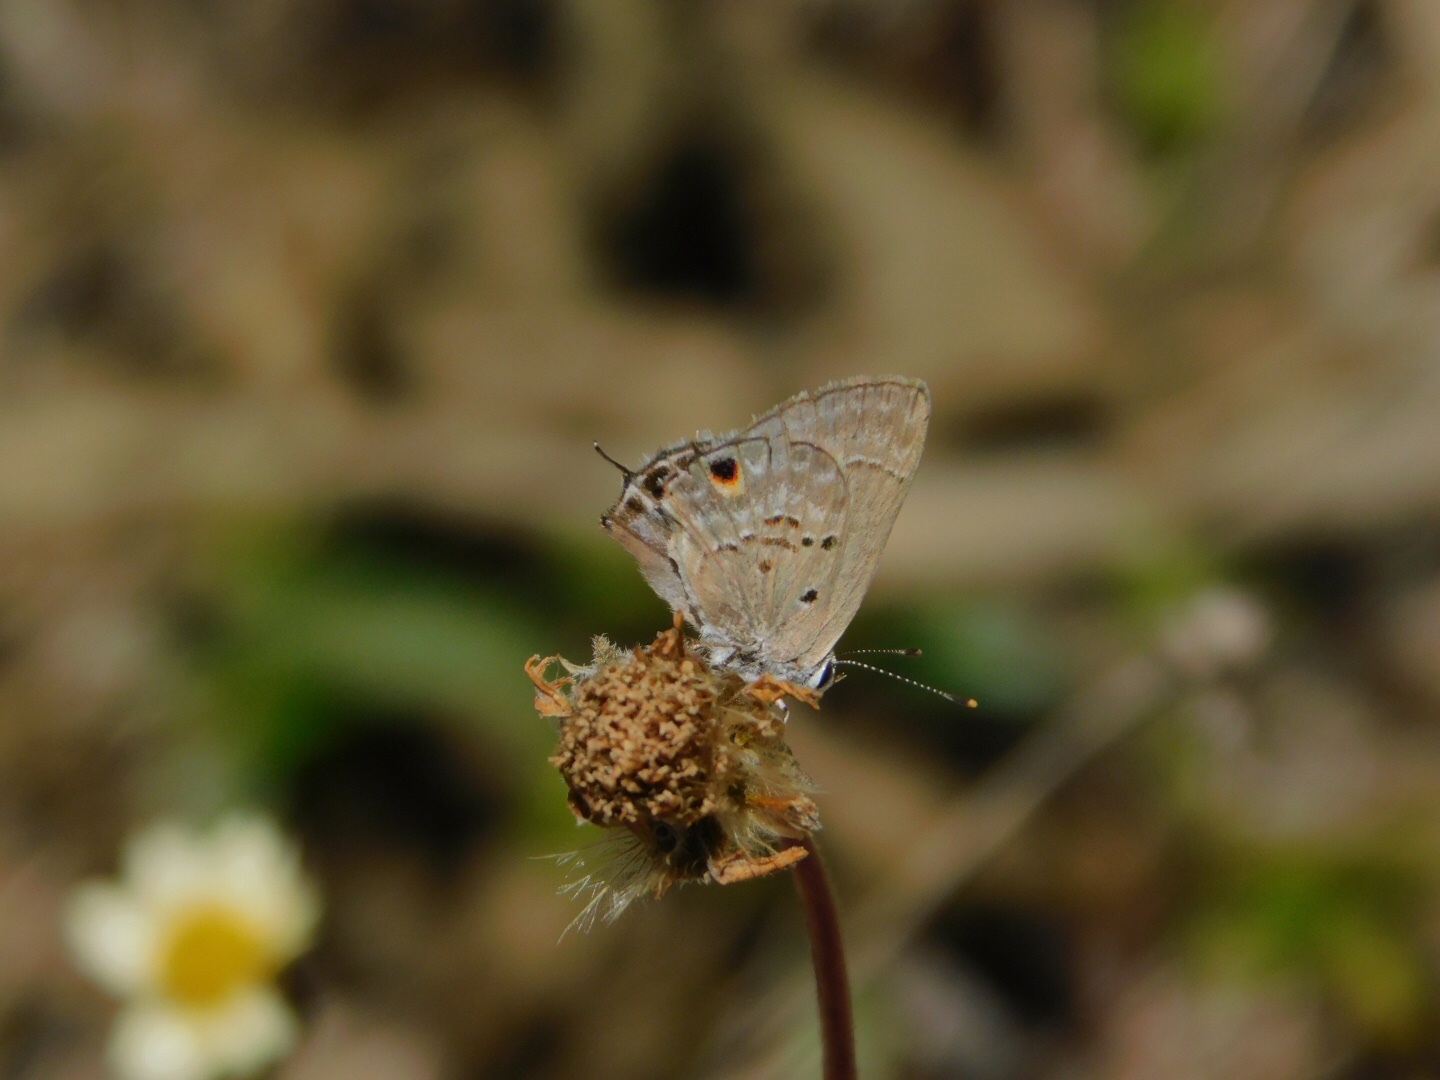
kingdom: Animalia
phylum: Arthropoda
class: Insecta
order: Lepidoptera
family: Lycaenidae
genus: Callicista
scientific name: Callicista columella
